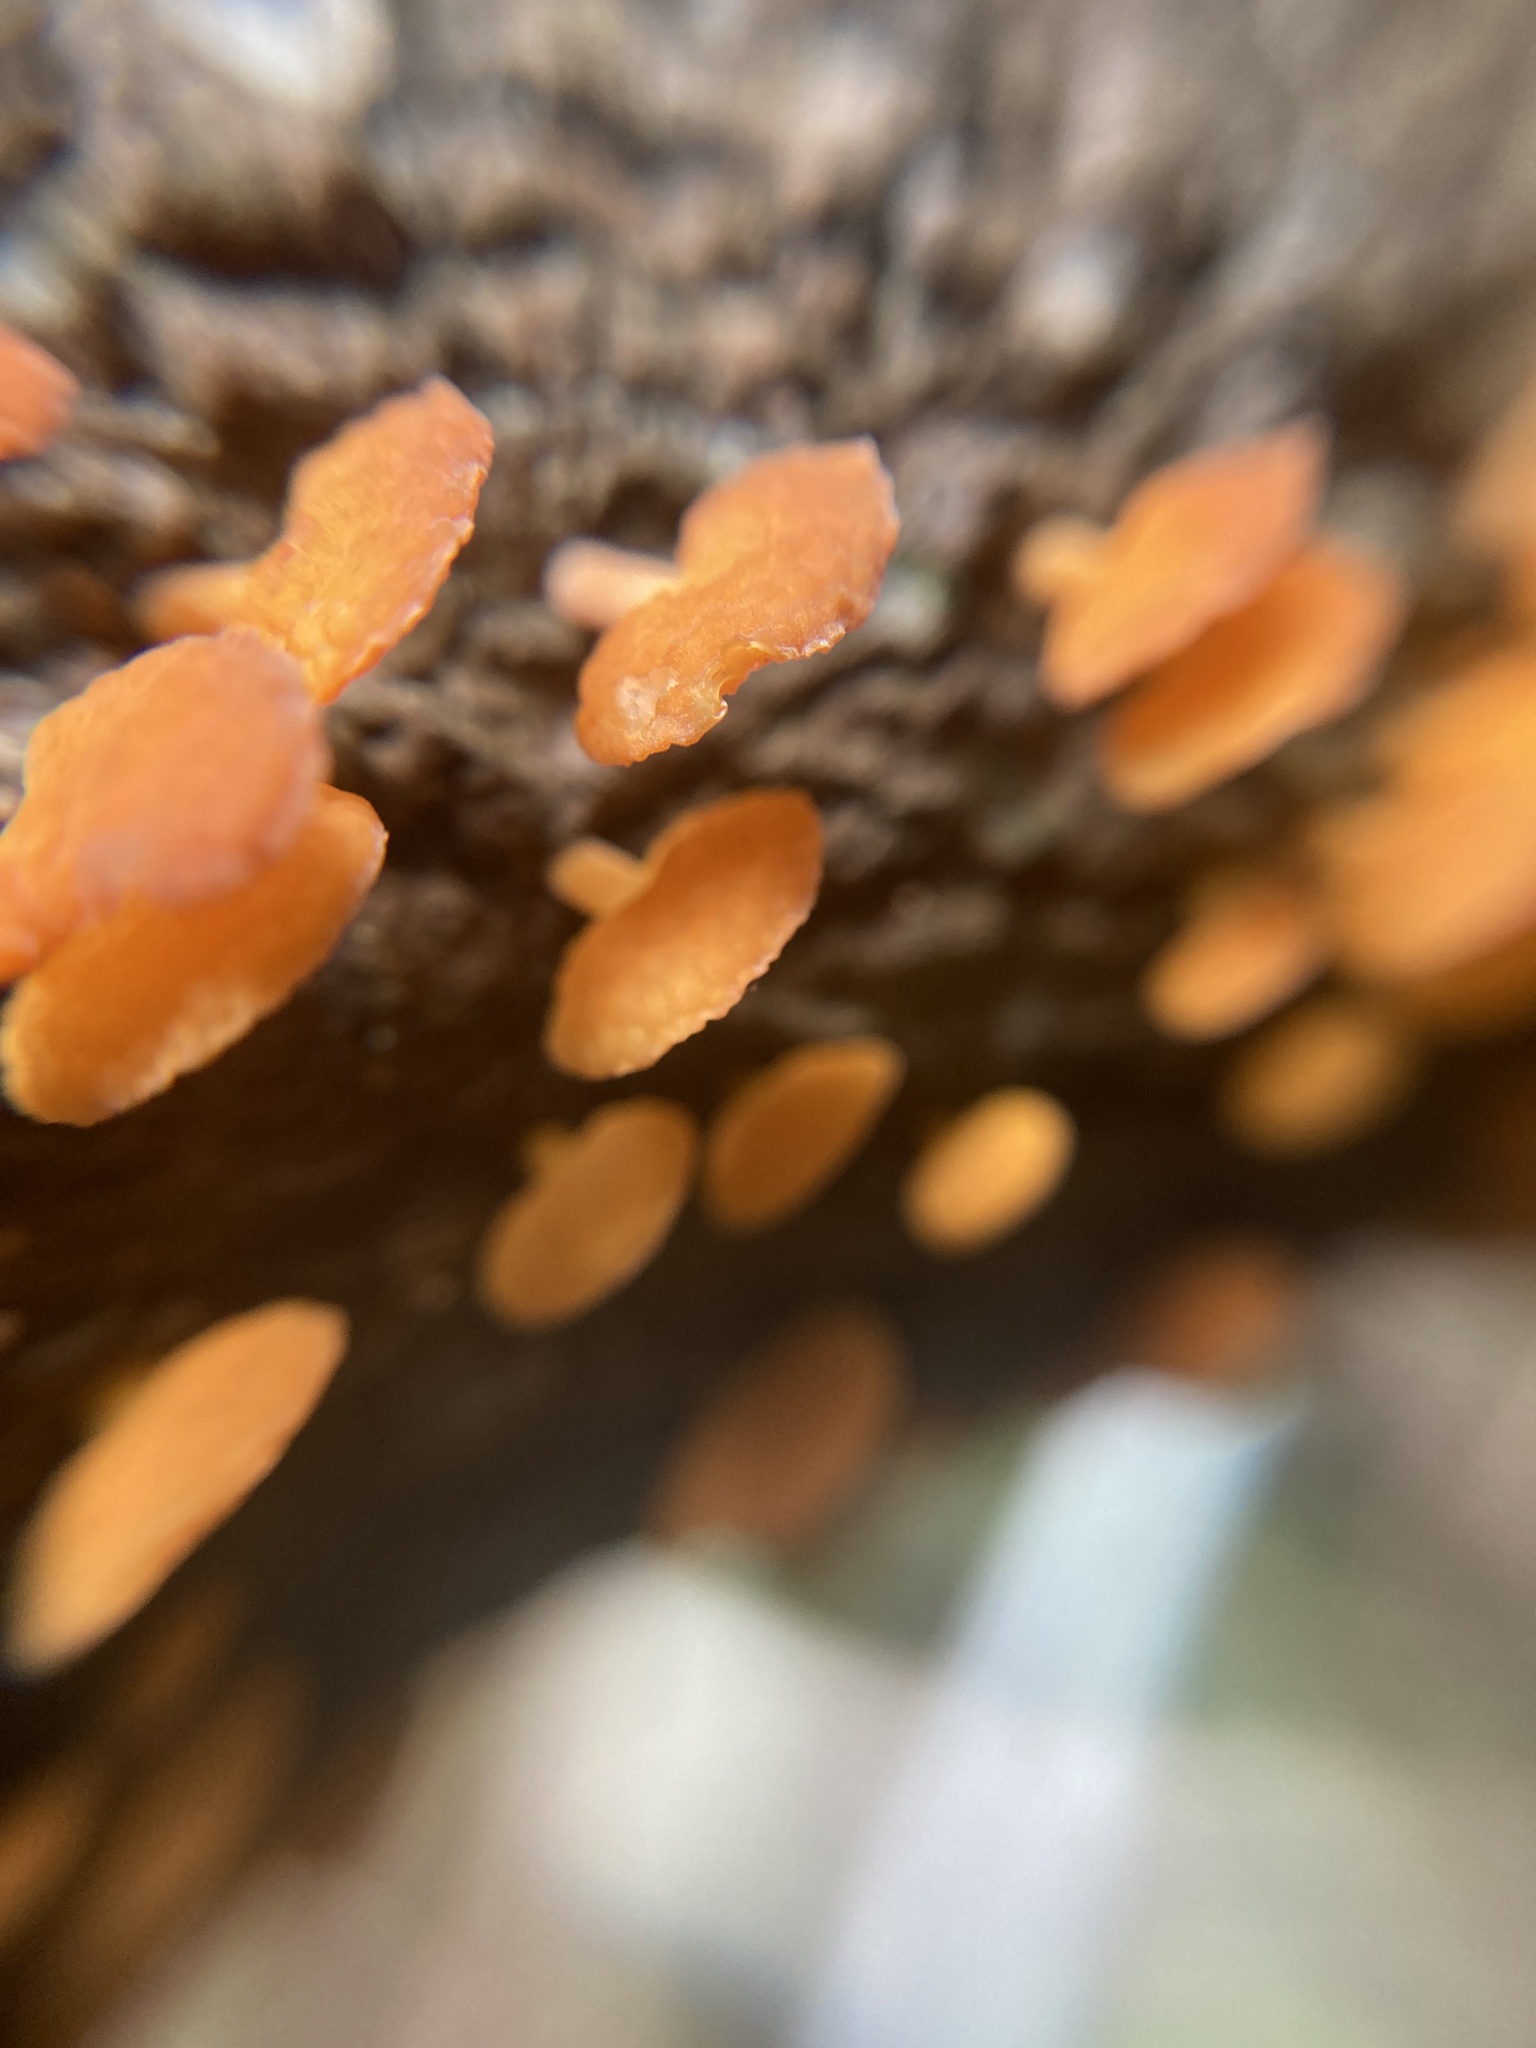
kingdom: Fungi
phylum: Basidiomycota
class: Agaricomycetes
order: Agaricales
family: Mycenaceae
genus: Favolaschia
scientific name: Favolaschia claudopus
